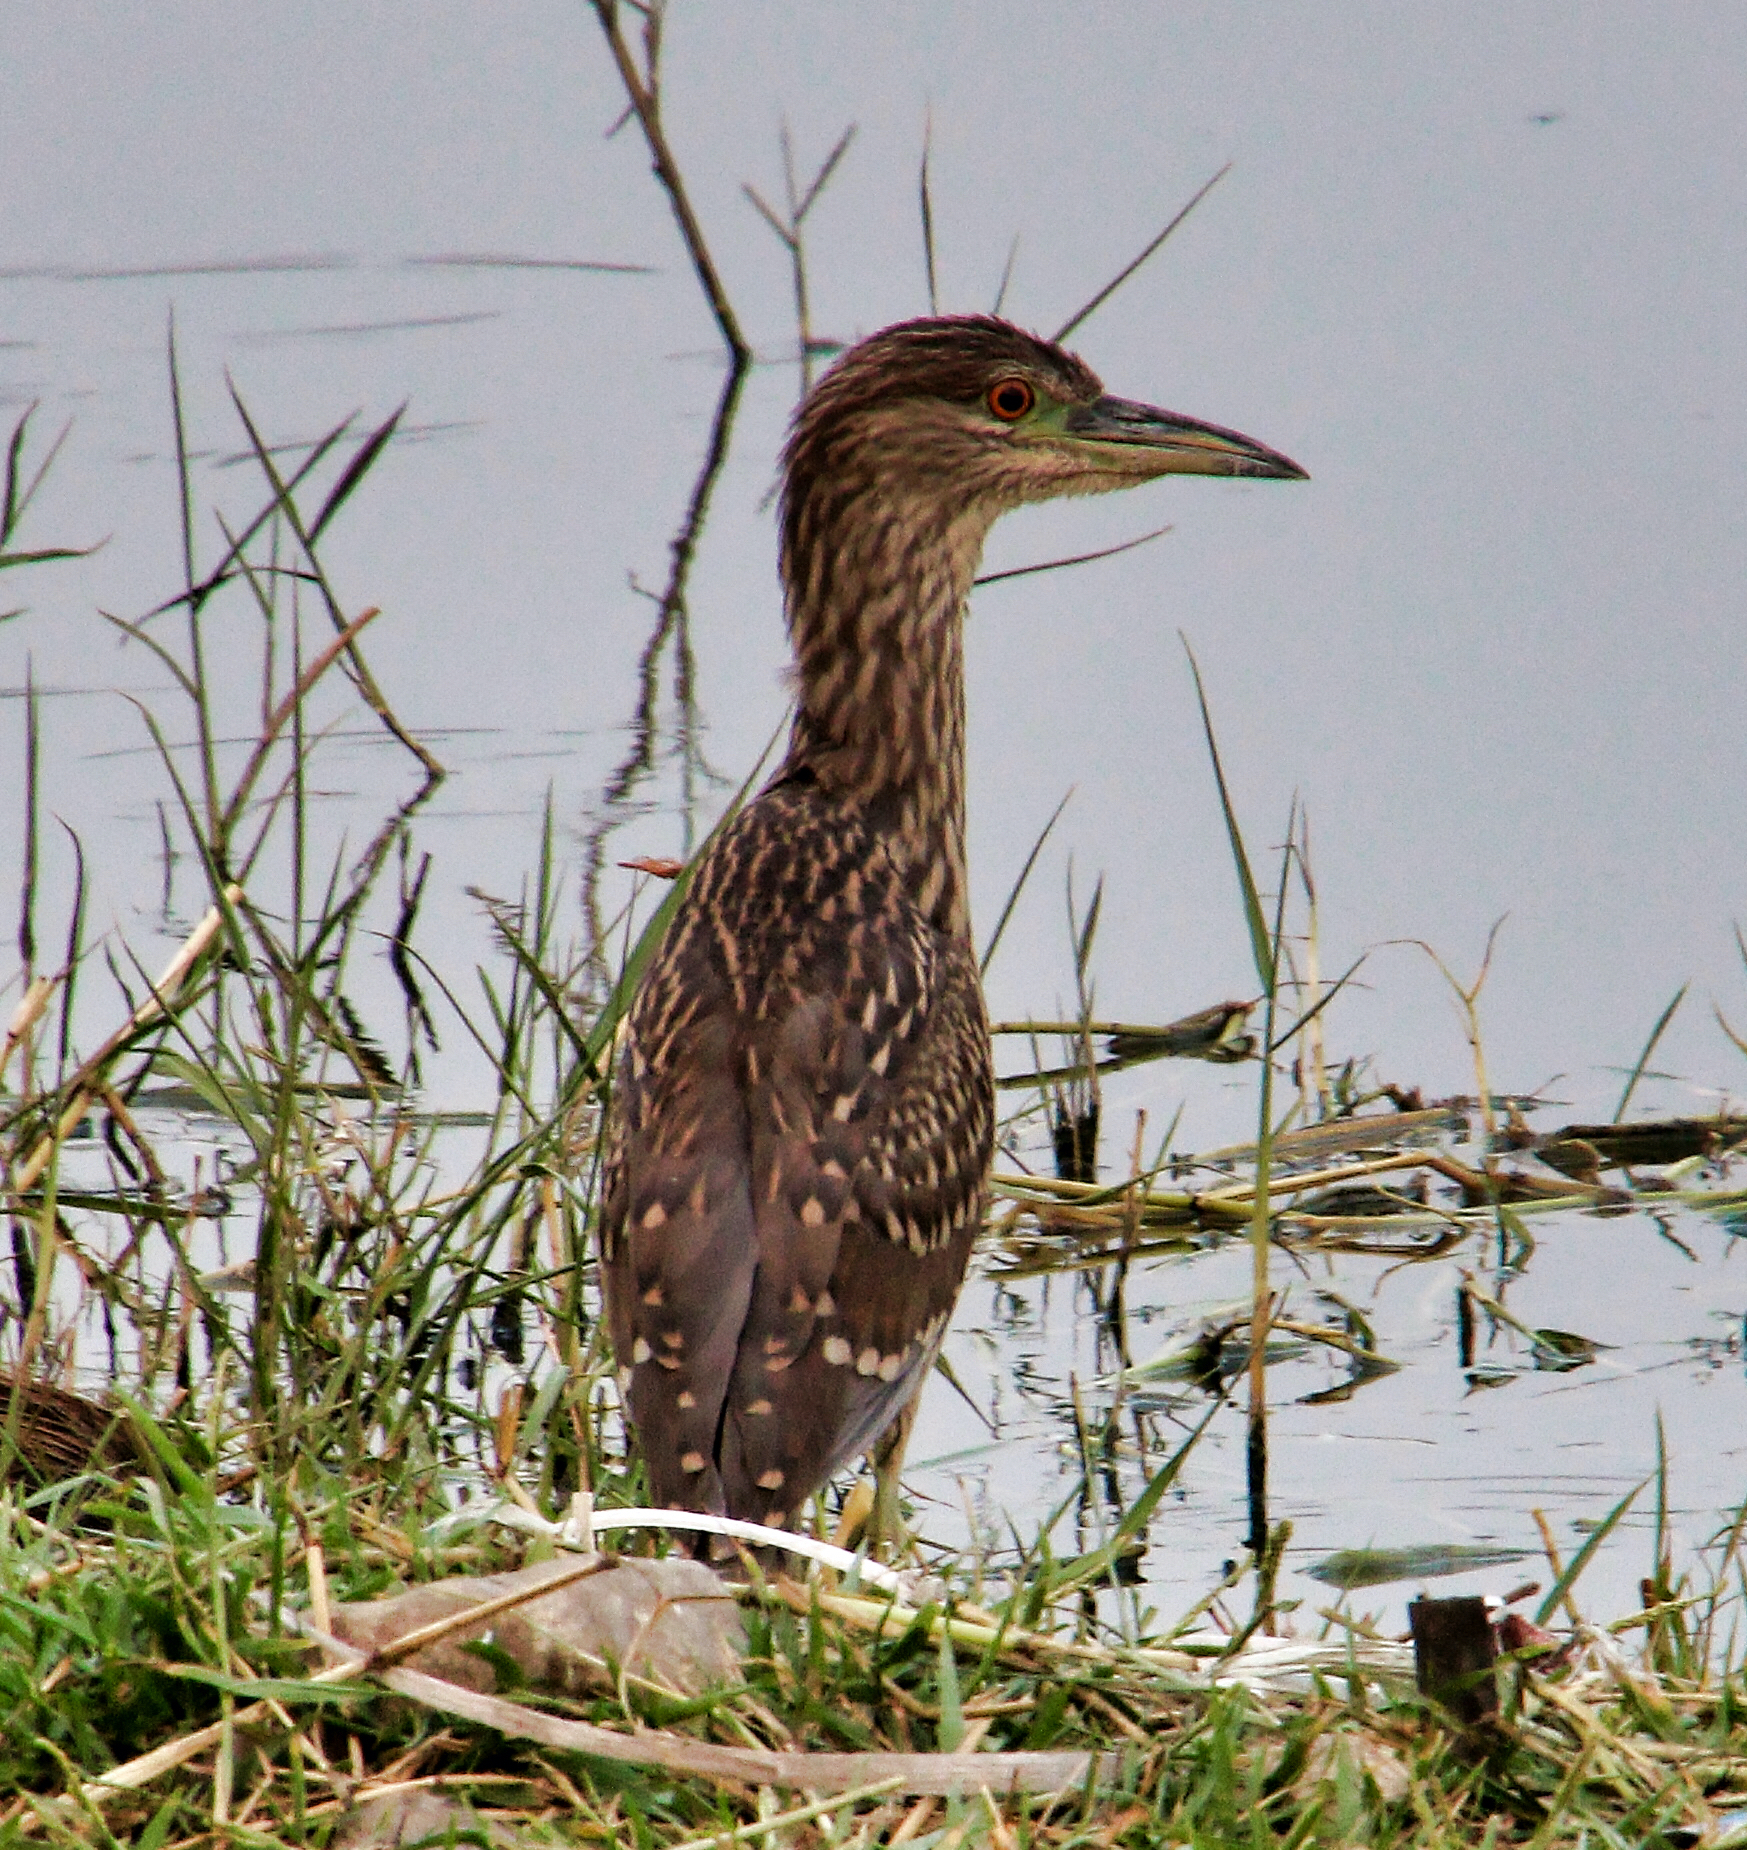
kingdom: Animalia
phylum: Chordata
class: Aves
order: Pelecaniformes
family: Ardeidae
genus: Nycticorax
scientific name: Nycticorax nycticorax
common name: Black-crowned night heron
